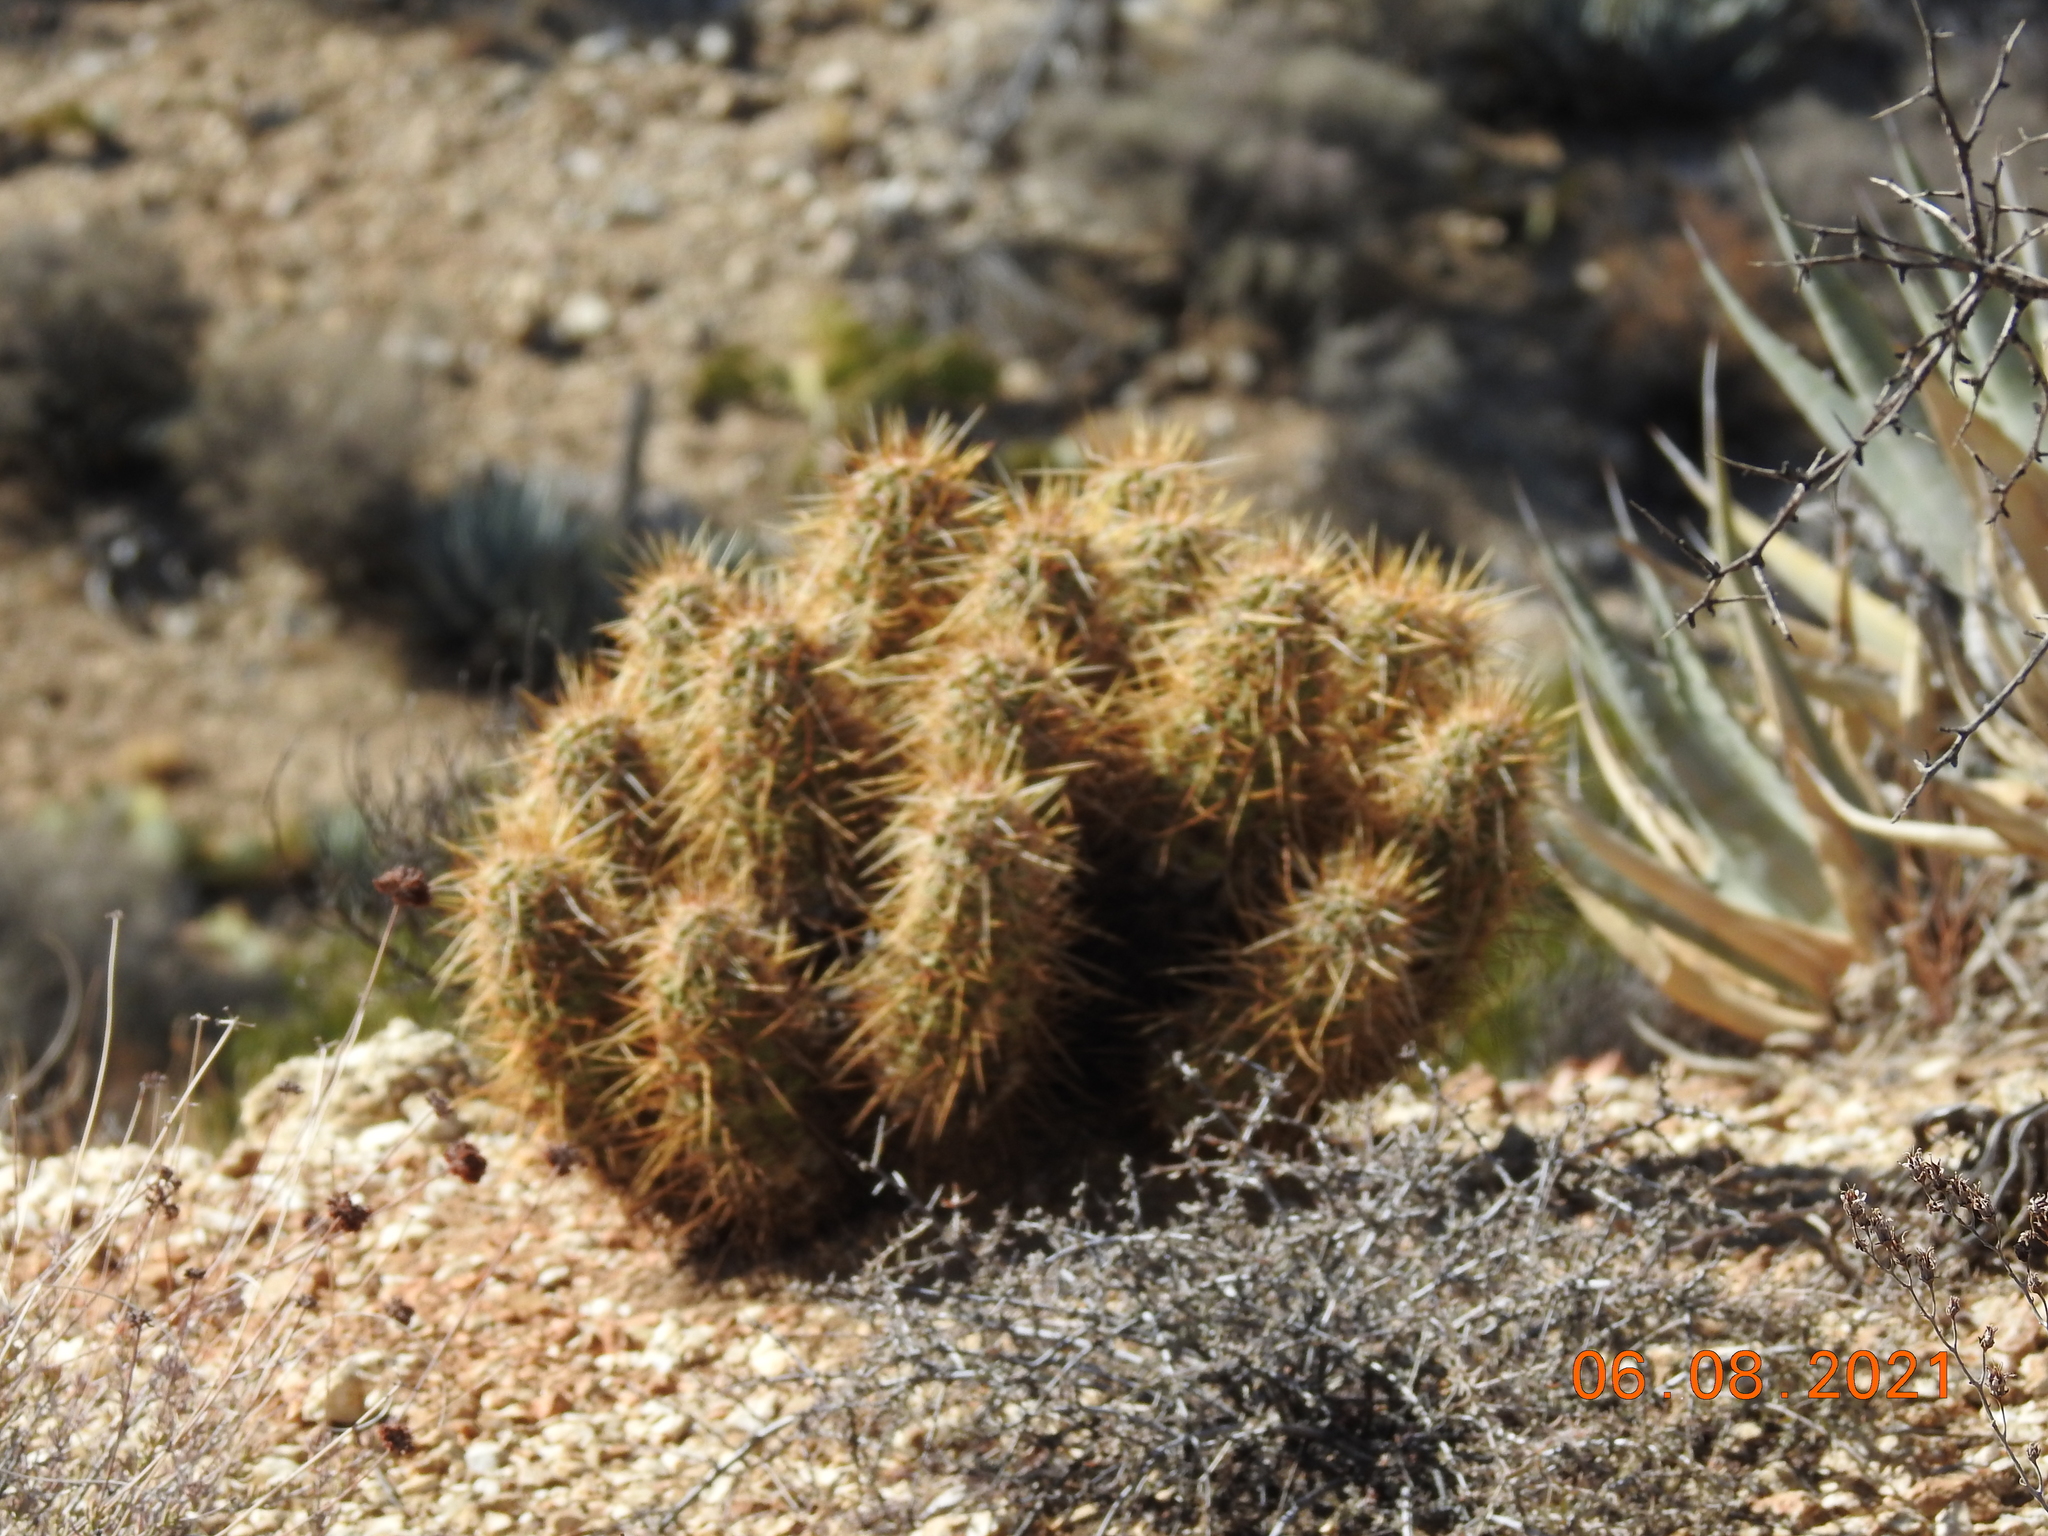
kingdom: Plantae
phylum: Tracheophyta
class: Magnoliopsida
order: Caryophyllales
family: Cactaceae
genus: Echinocereus
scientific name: Echinocereus engelmannii
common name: Engelmann's hedgehog cactus
